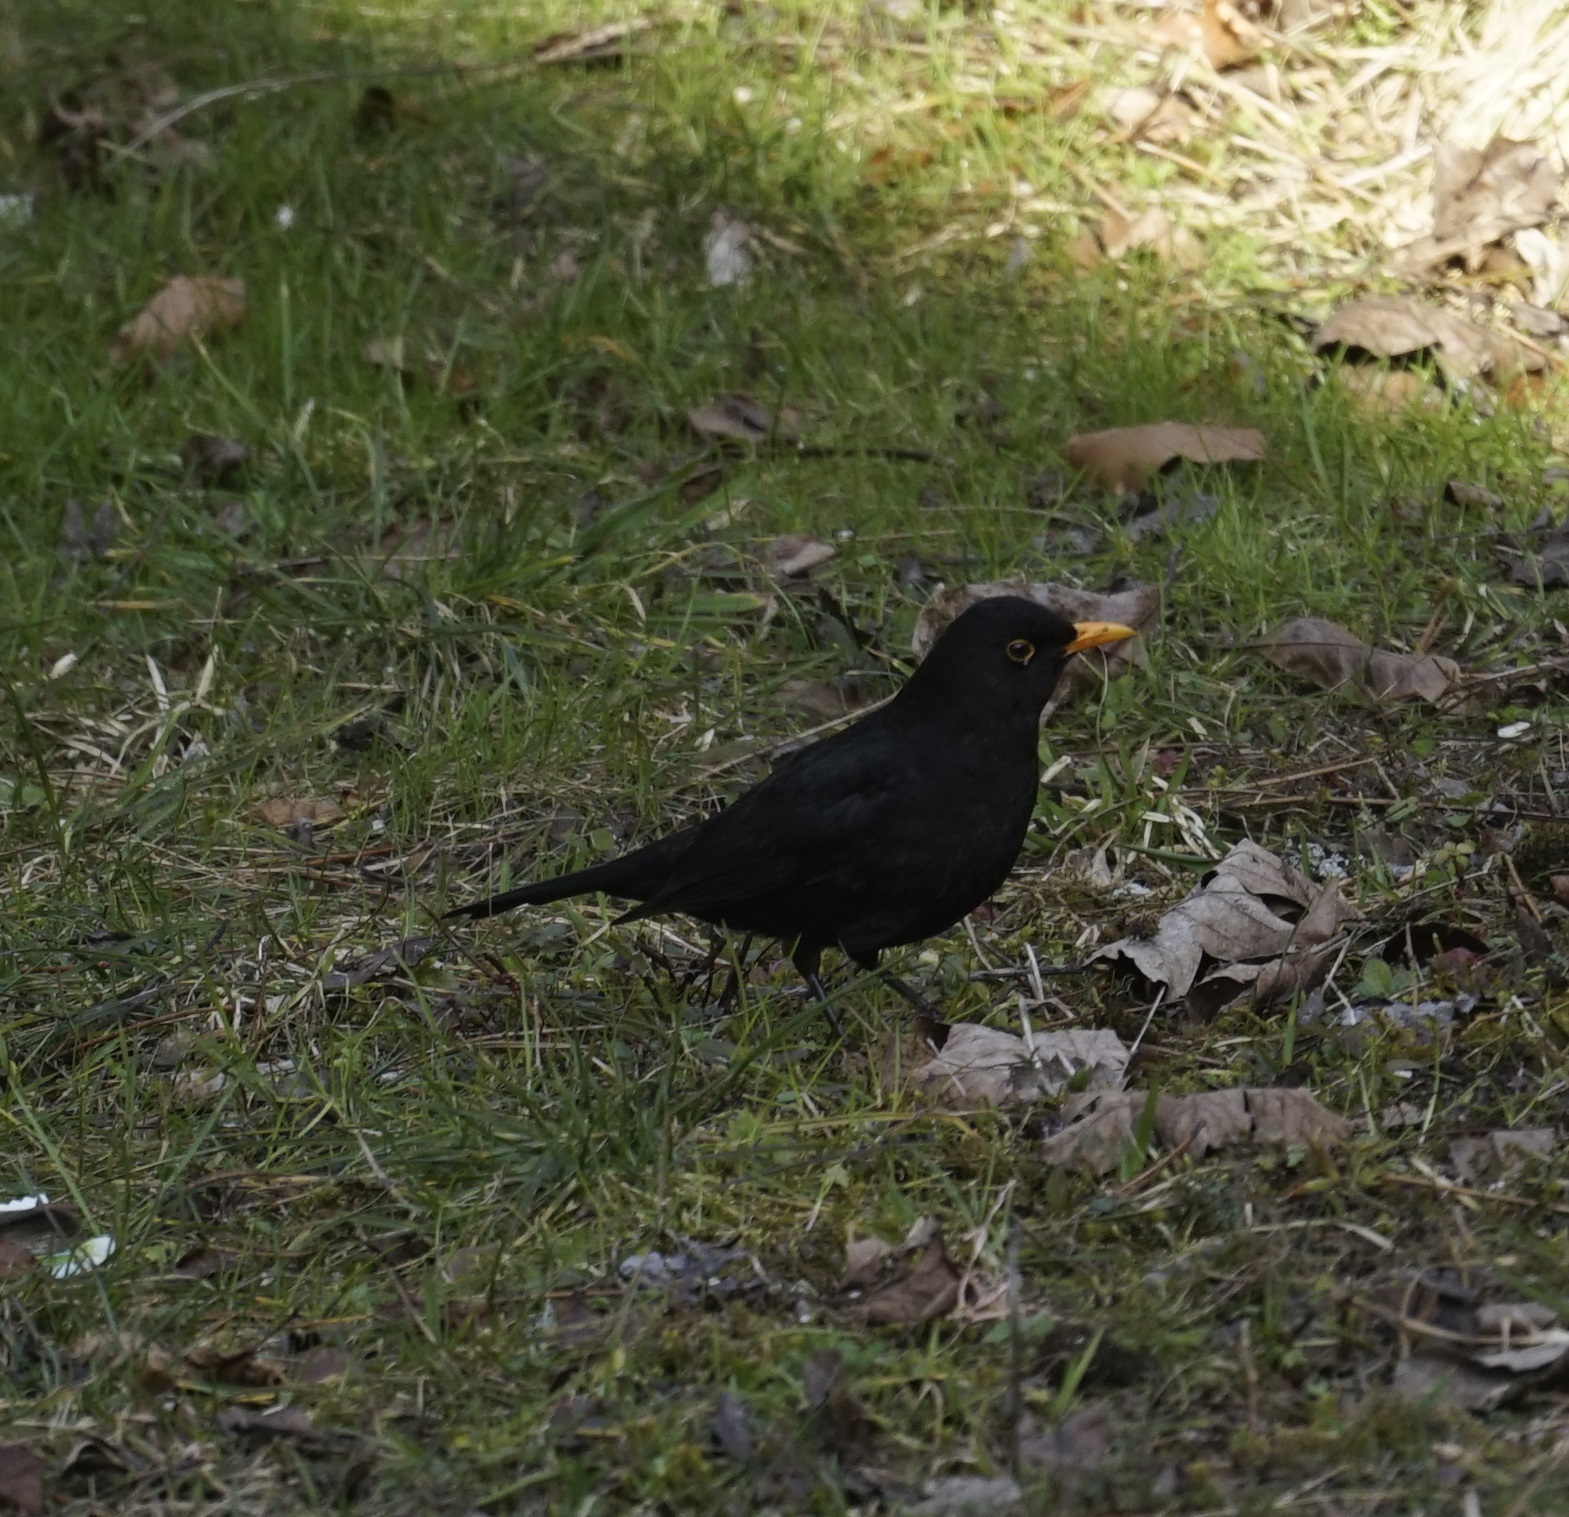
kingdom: Animalia
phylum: Chordata
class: Aves
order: Passeriformes
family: Turdidae
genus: Turdus
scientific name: Turdus merula
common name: Common blackbird
